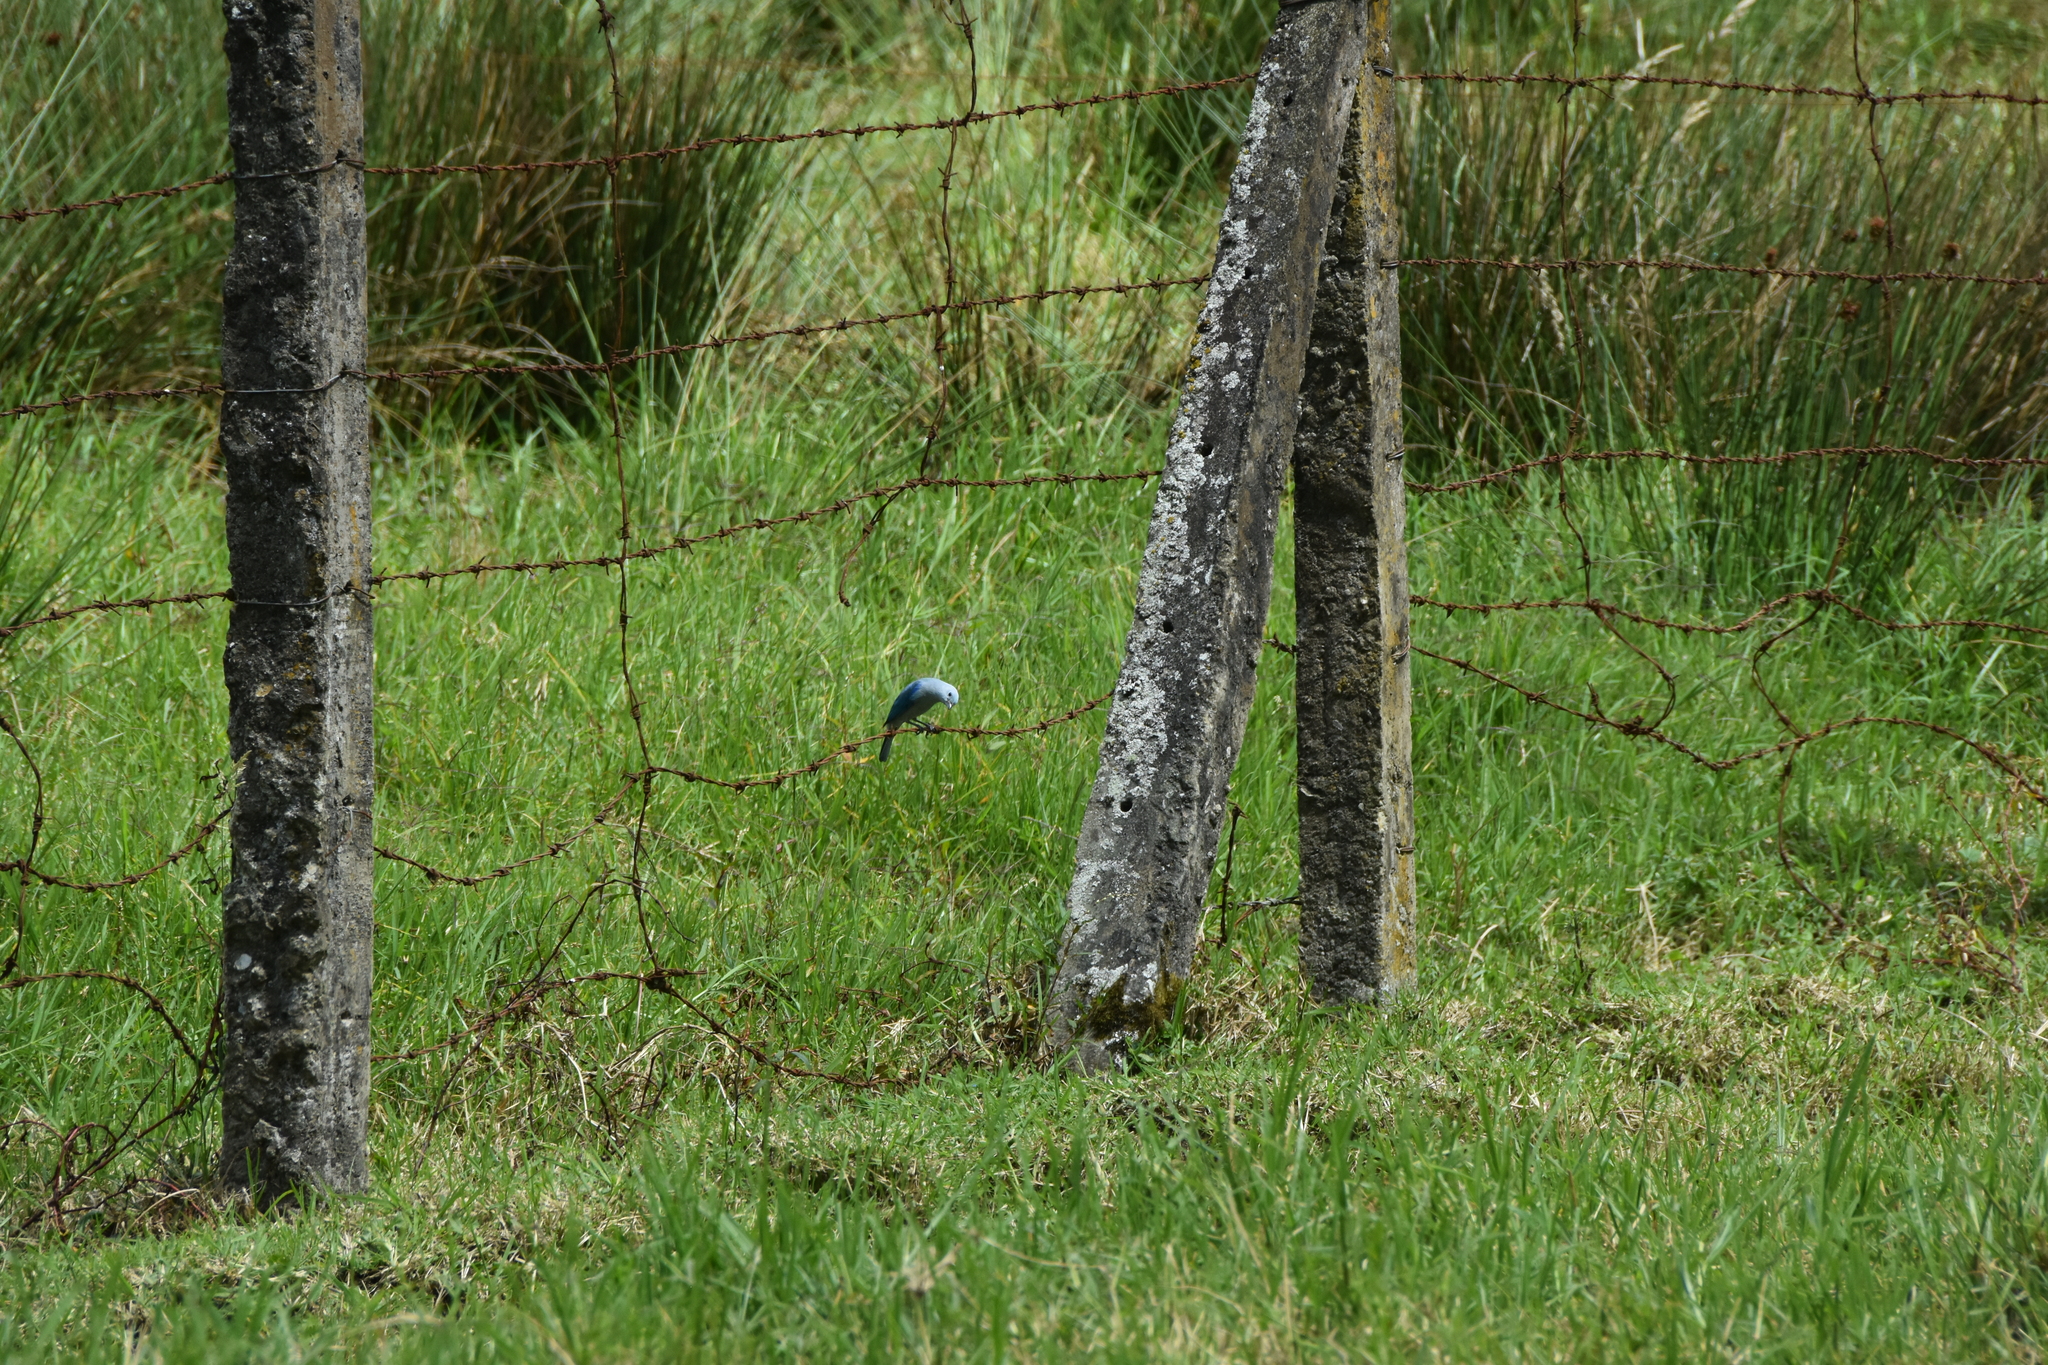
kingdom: Animalia
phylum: Chordata
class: Aves
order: Passeriformes
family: Thraupidae
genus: Thraupis
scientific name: Thraupis episcopus
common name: Blue-grey tanager
